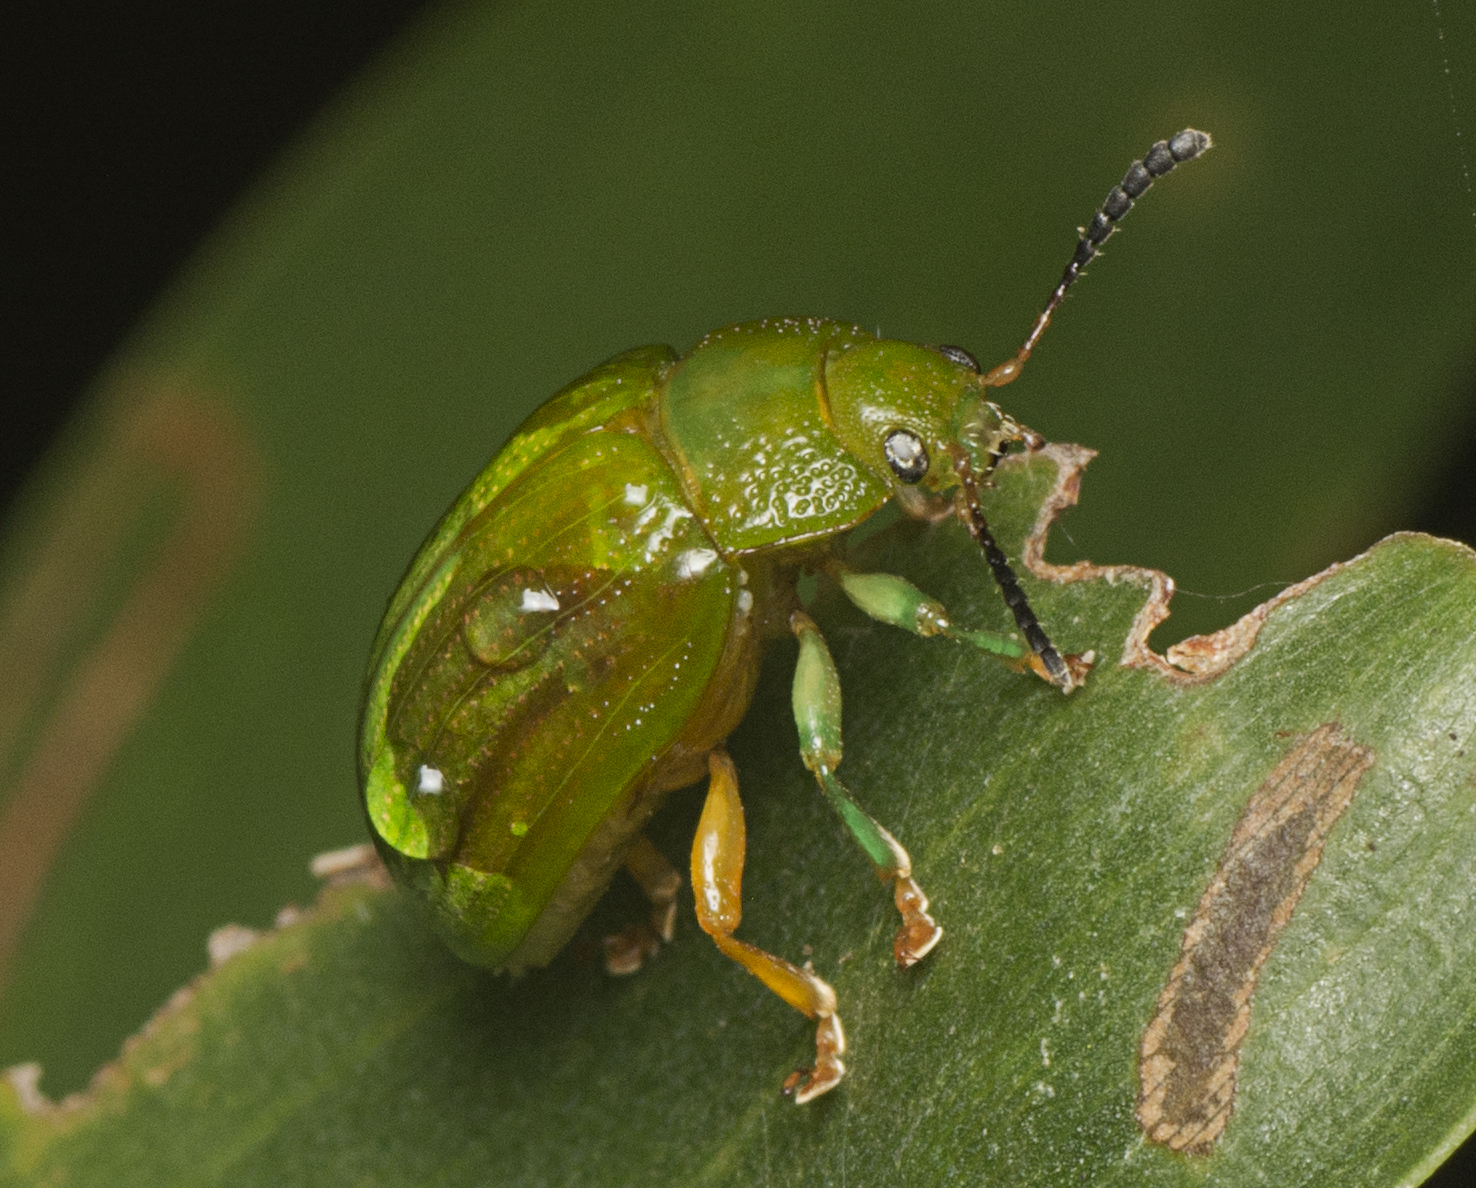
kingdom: Animalia
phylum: Arthropoda
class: Insecta
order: Coleoptera
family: Chrysomelidae
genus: Calomela
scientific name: Calomela
